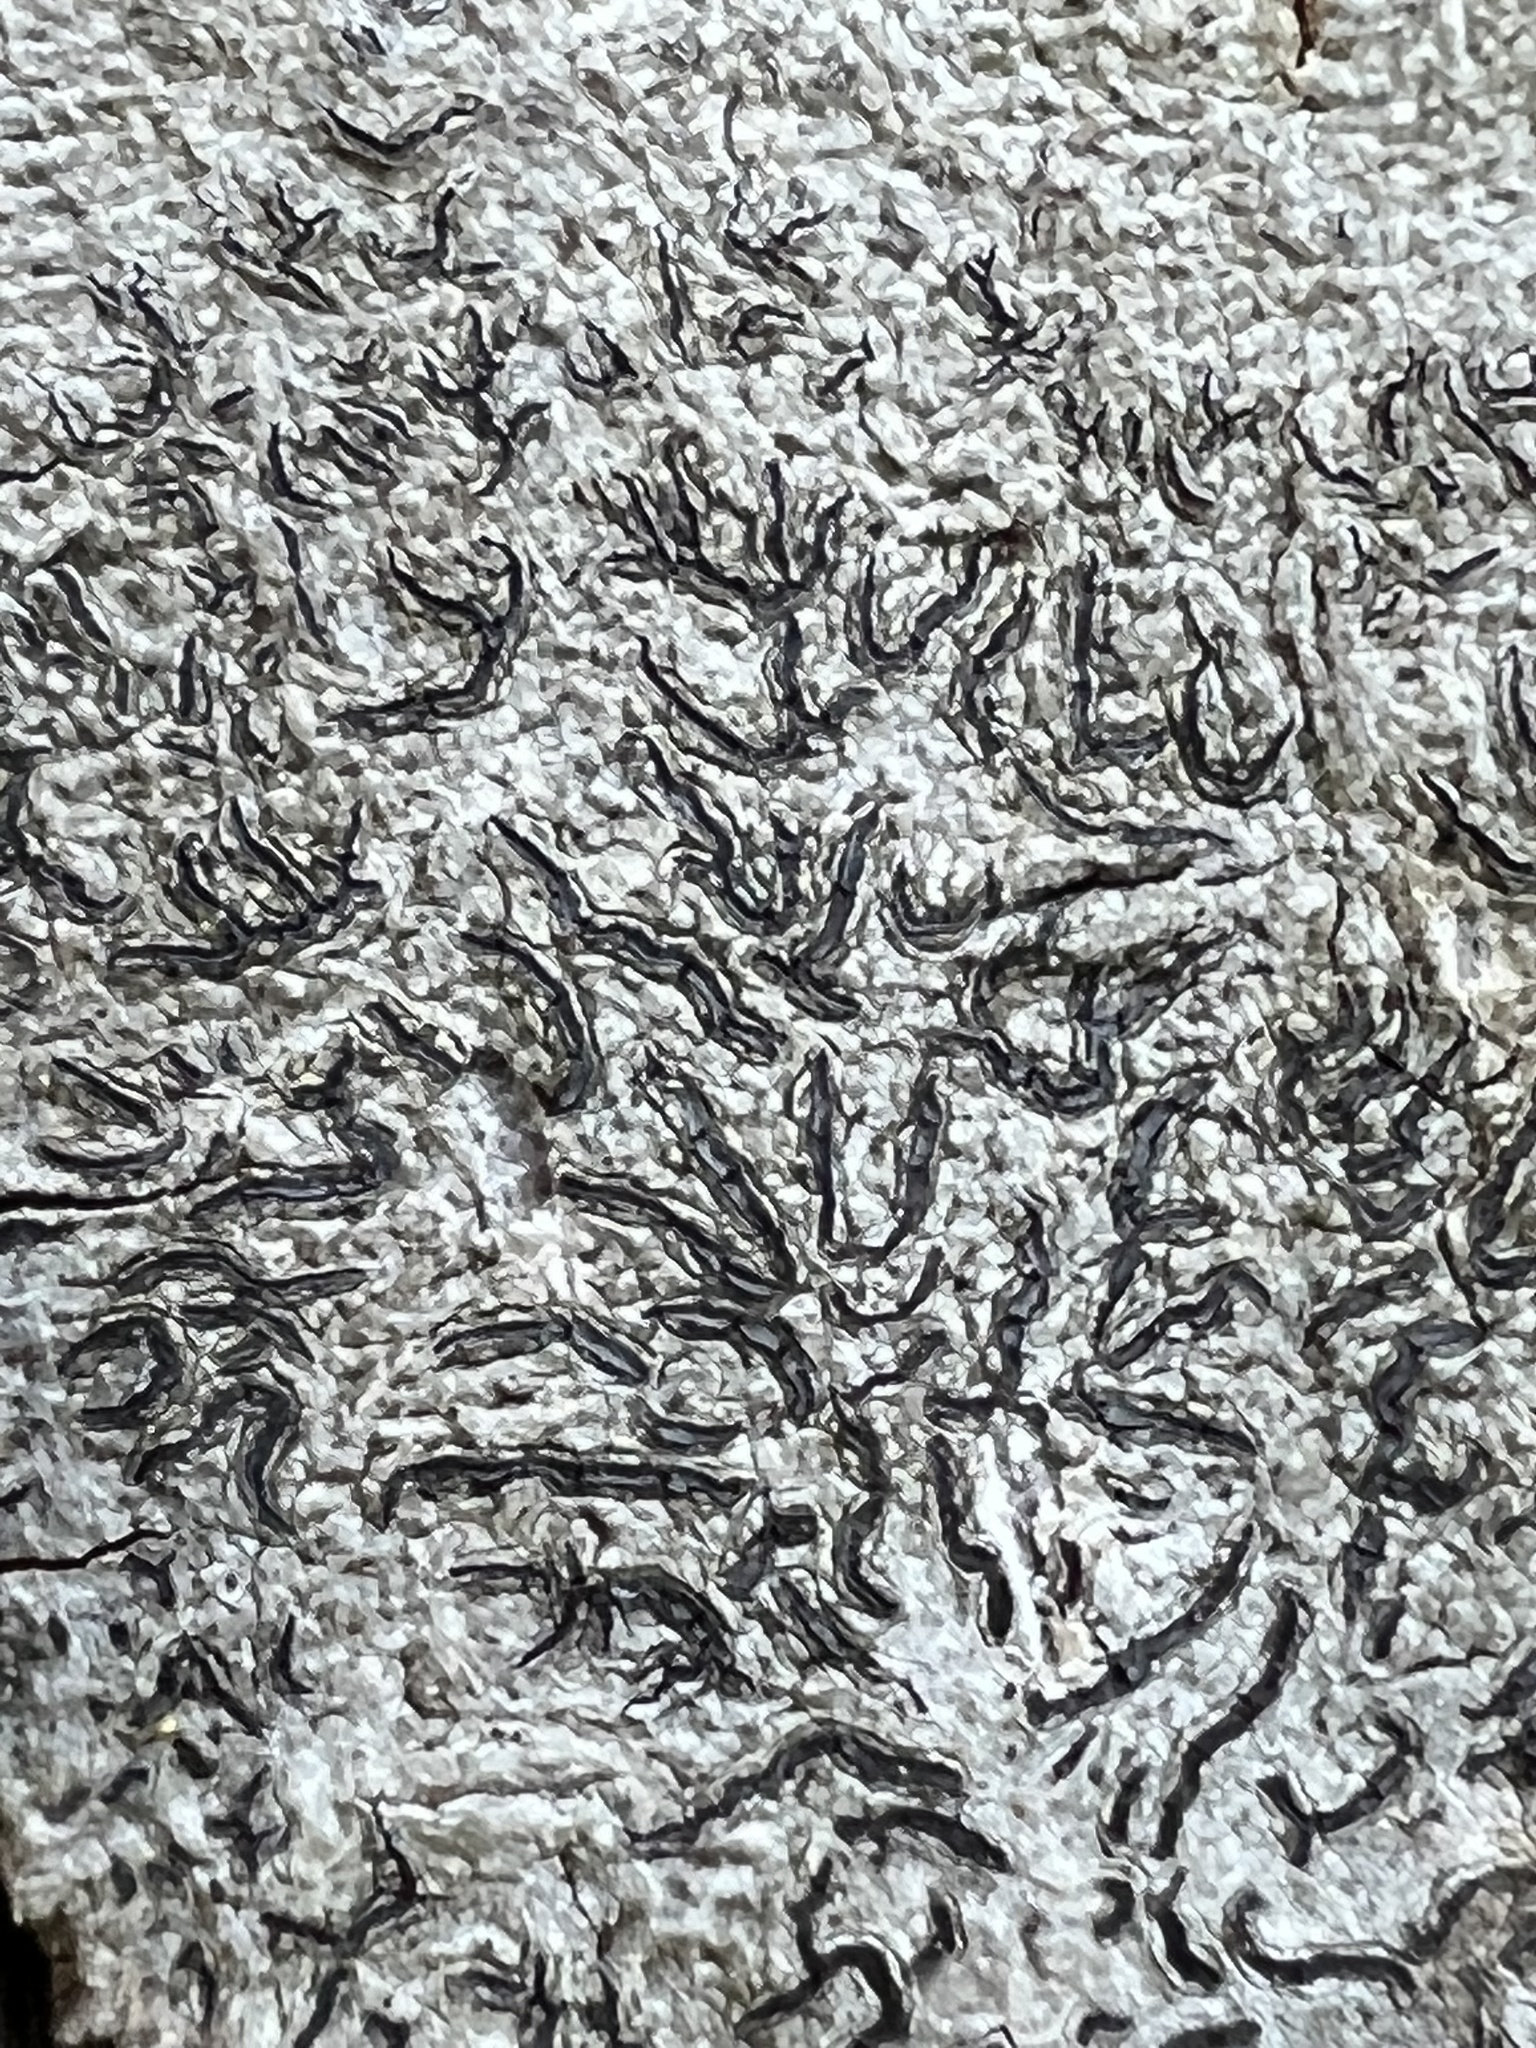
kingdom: Fungi
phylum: Ascomycota
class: Lecanoromycetes
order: Ostropales
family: Graphidaceae
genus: Graphis
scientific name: Graphis scripta
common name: Script lichen
